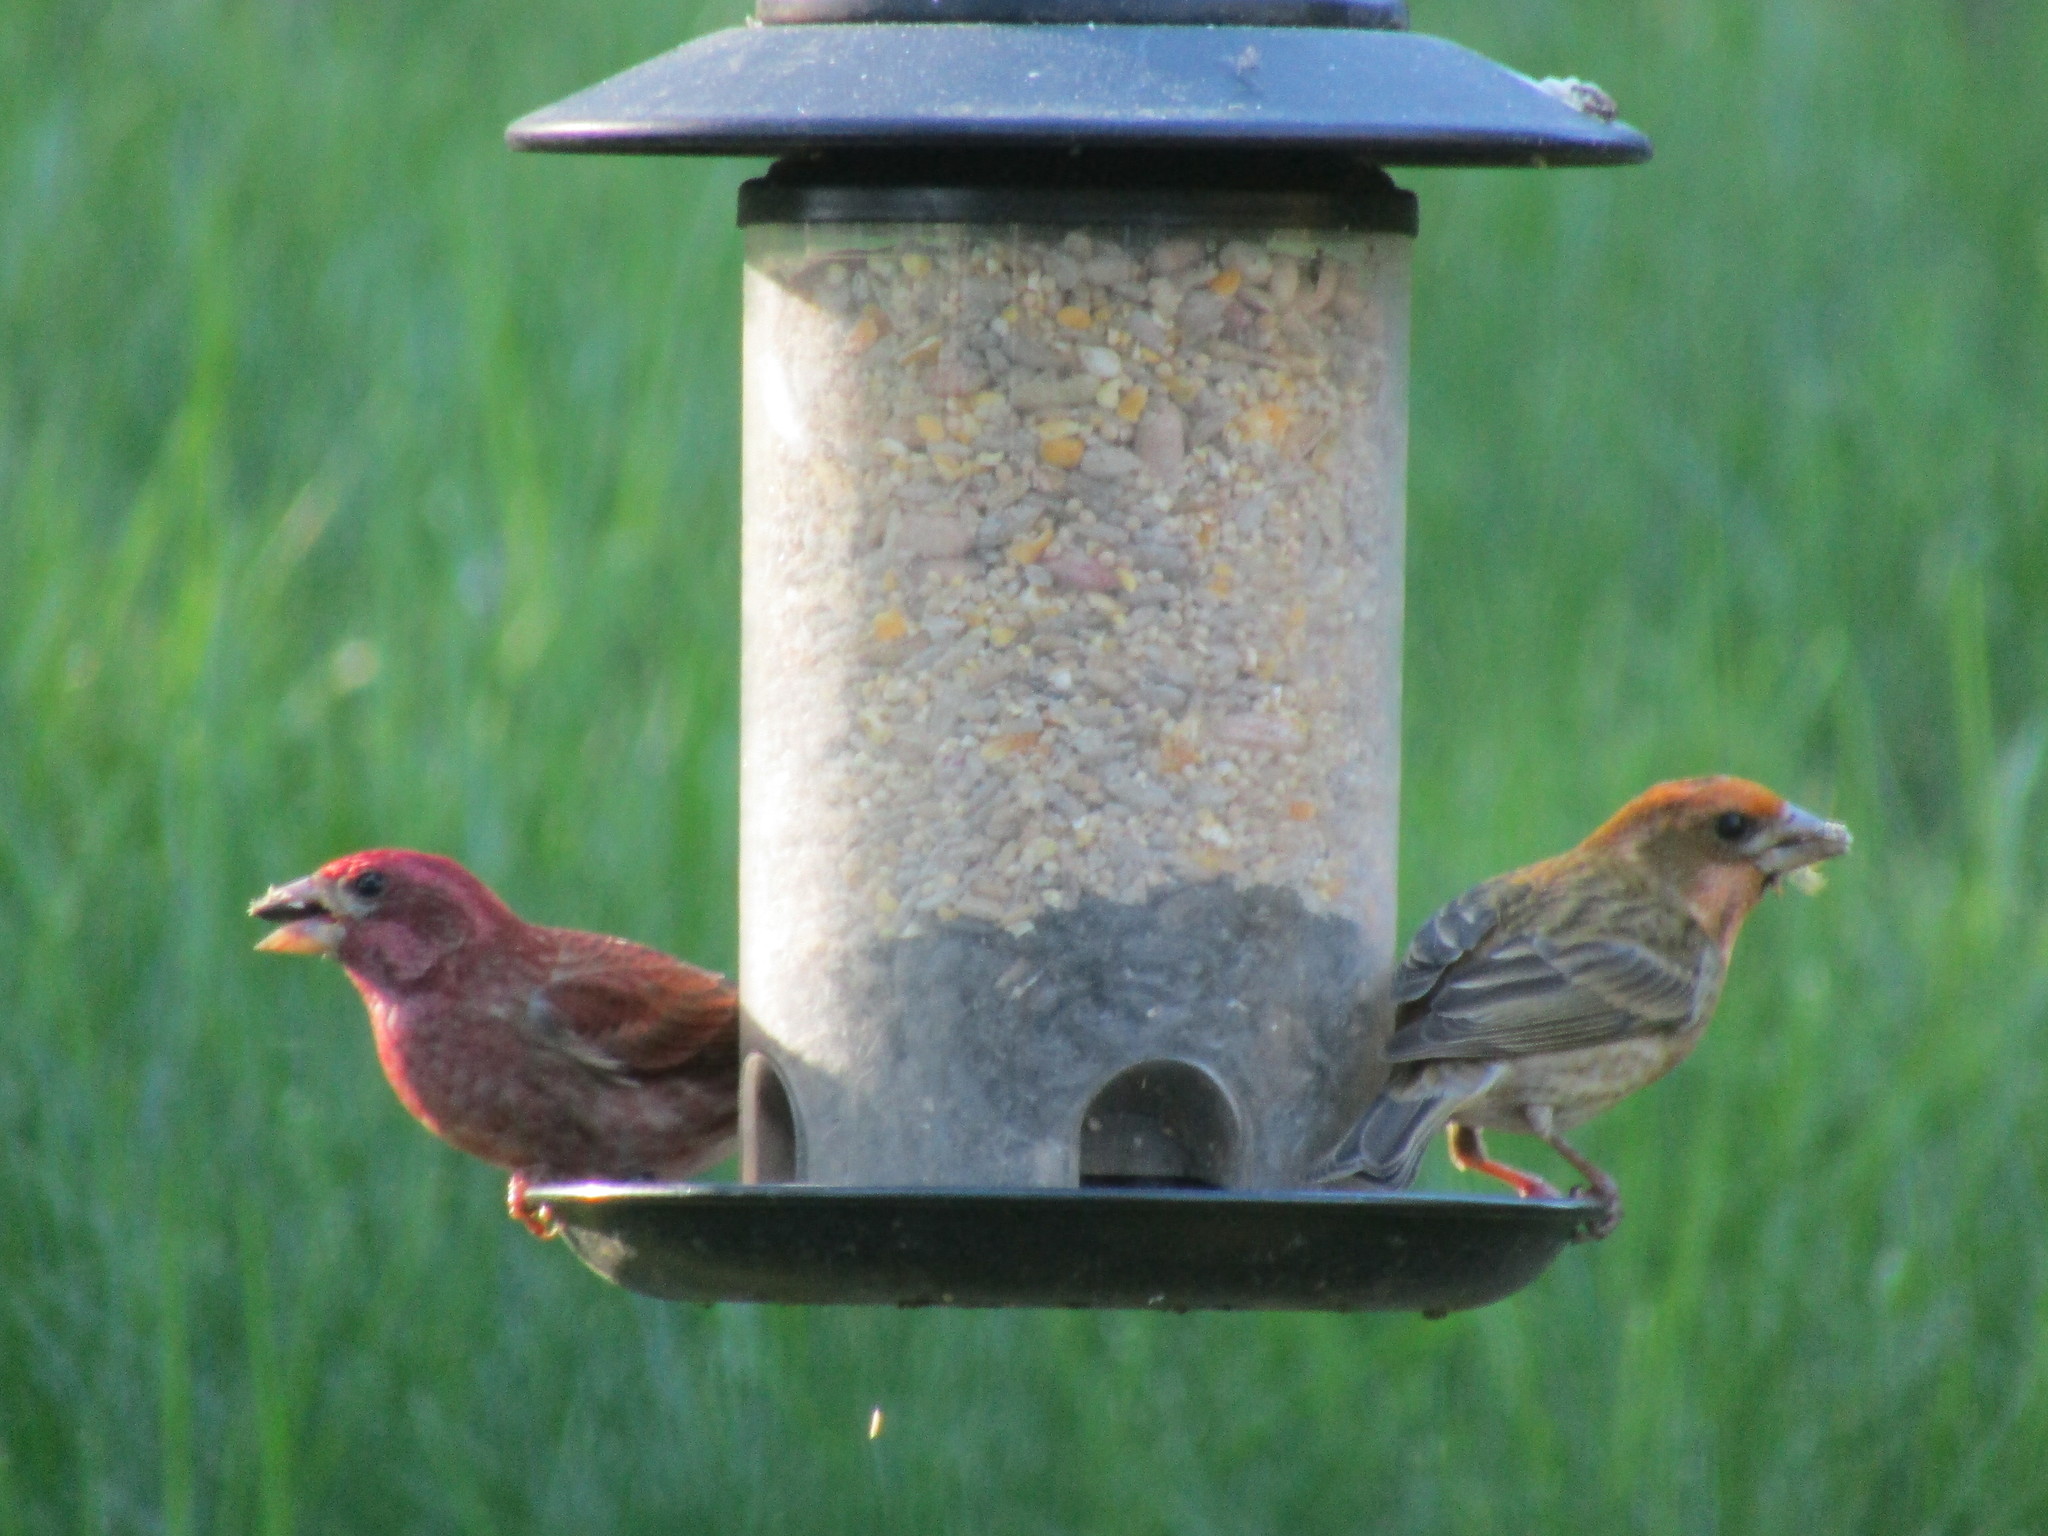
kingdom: Animalia
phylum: Chordata
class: Aves
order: Passeriformes
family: Fringillidae
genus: Haemorhous
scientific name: Haemorhous purpureus
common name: Purple finch
